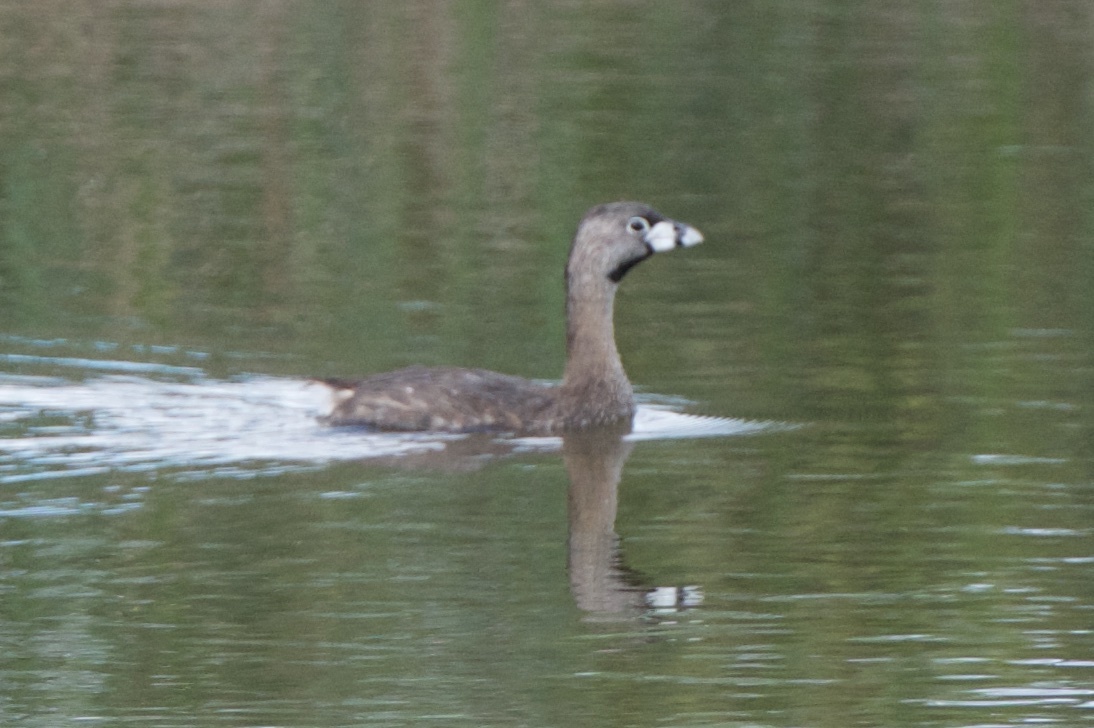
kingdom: Animalia
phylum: Chordata
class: Aves
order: Podicipediformes
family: Podicipedidae
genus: Podilymbus
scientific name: Podilymbus podiceps
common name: Pied-billed grebe
